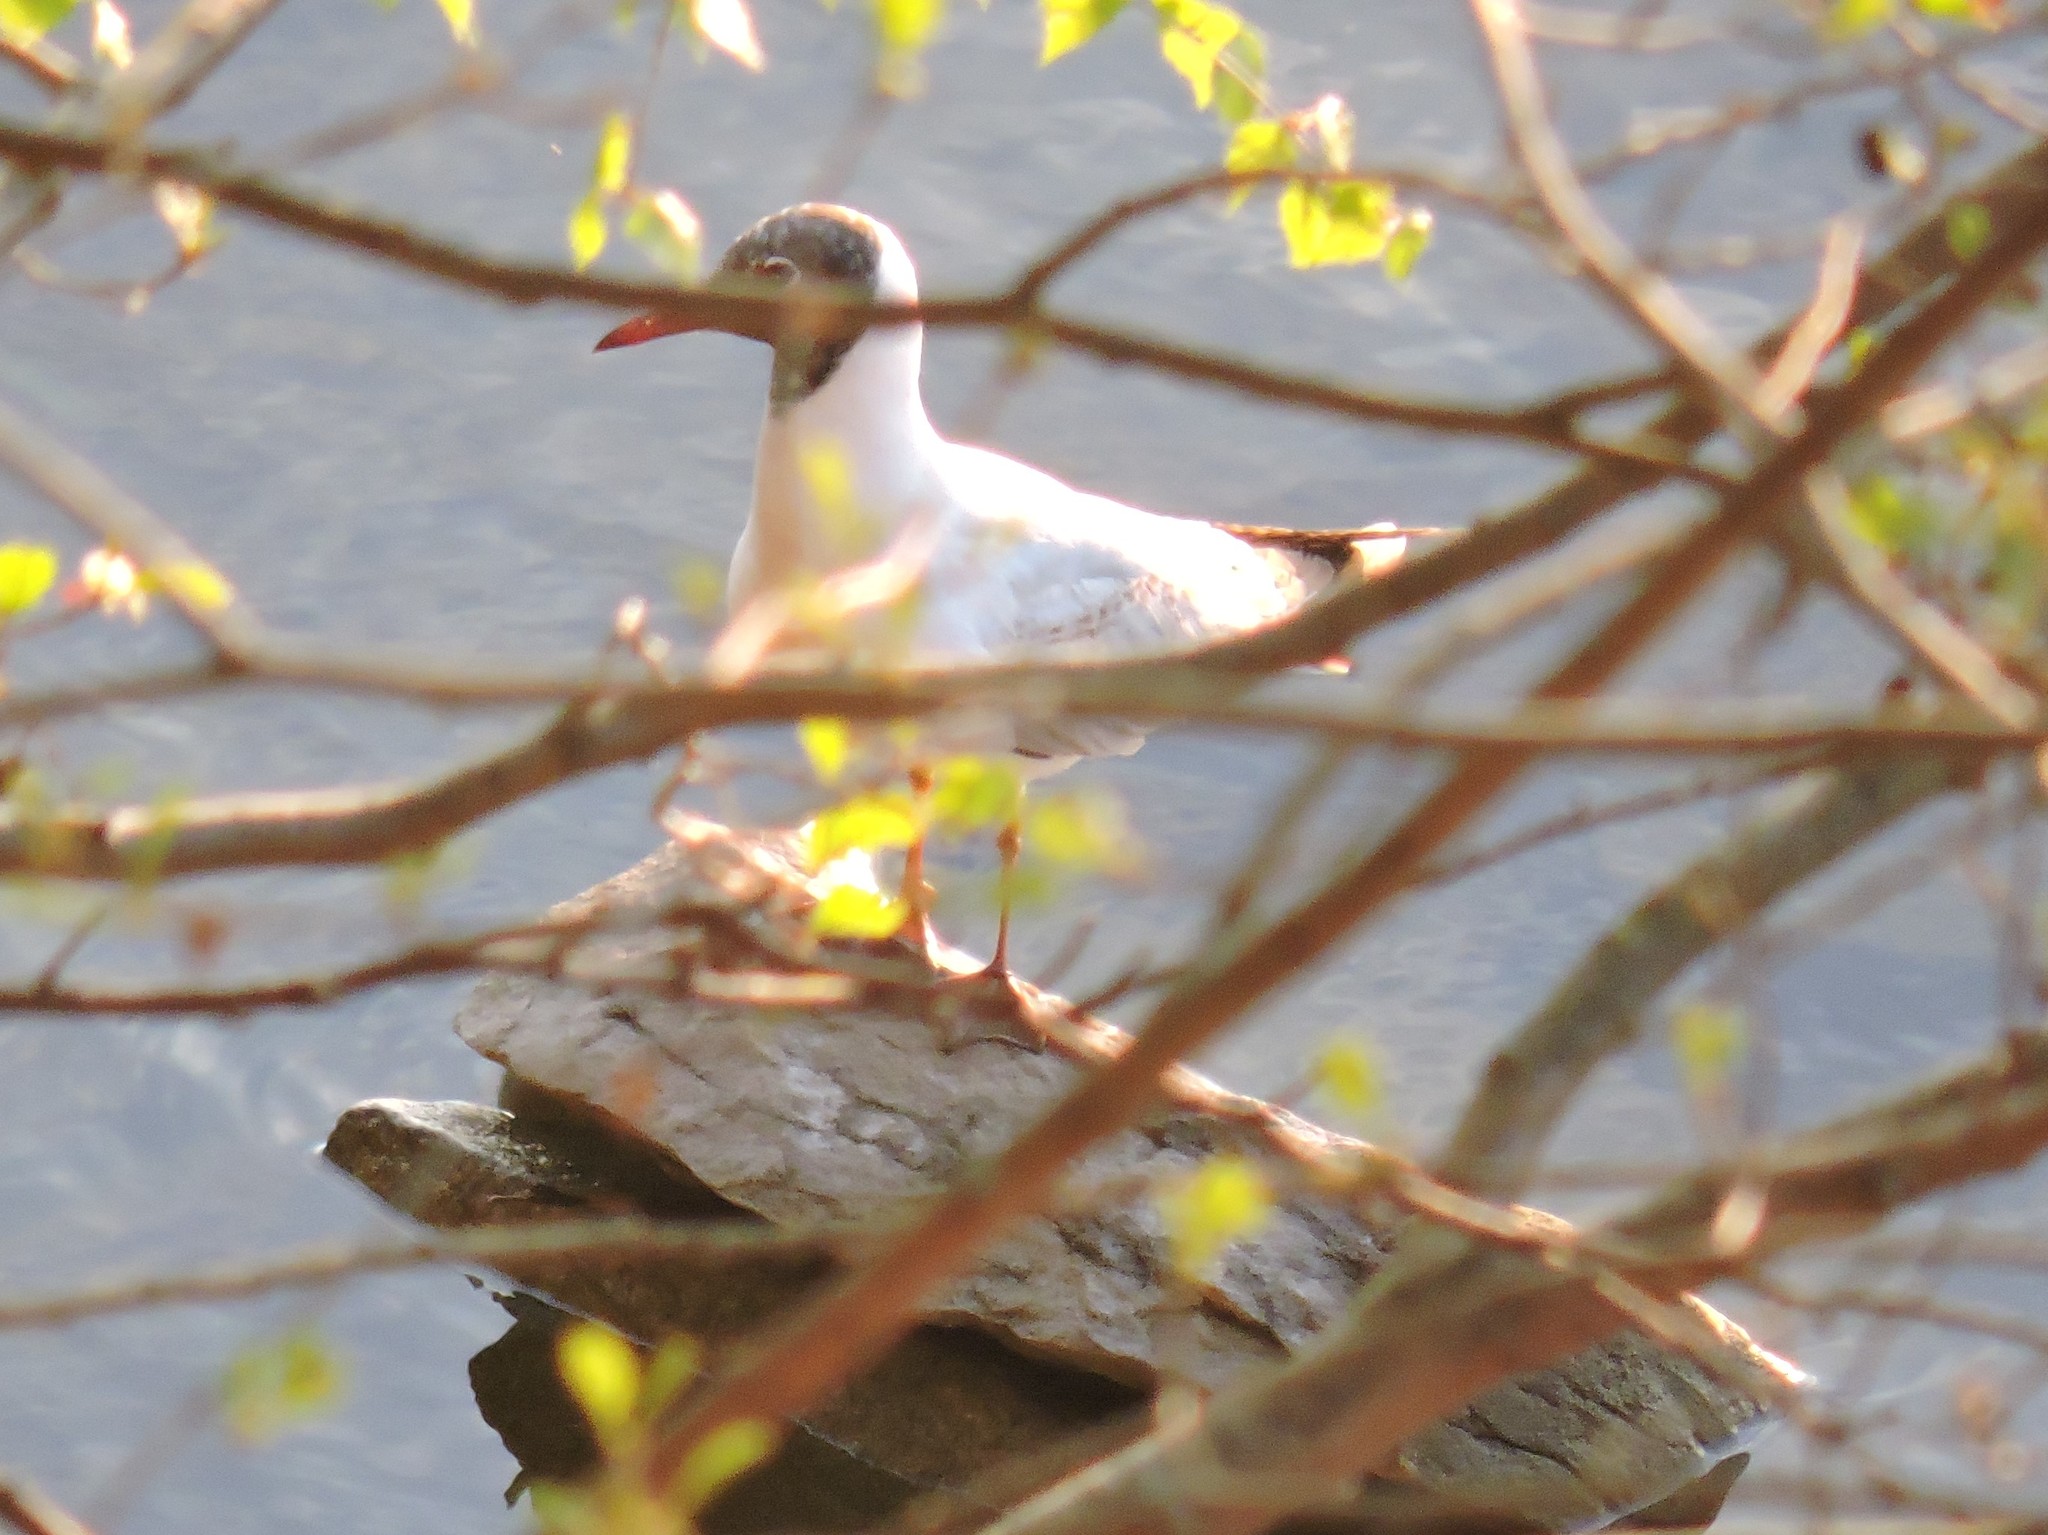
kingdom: Animalia
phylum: Chordata
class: Aves
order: Charadriiformes
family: Laridae
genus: Chroicocephalus
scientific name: Chroicocephalus ridibundus
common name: Black-headed gull
